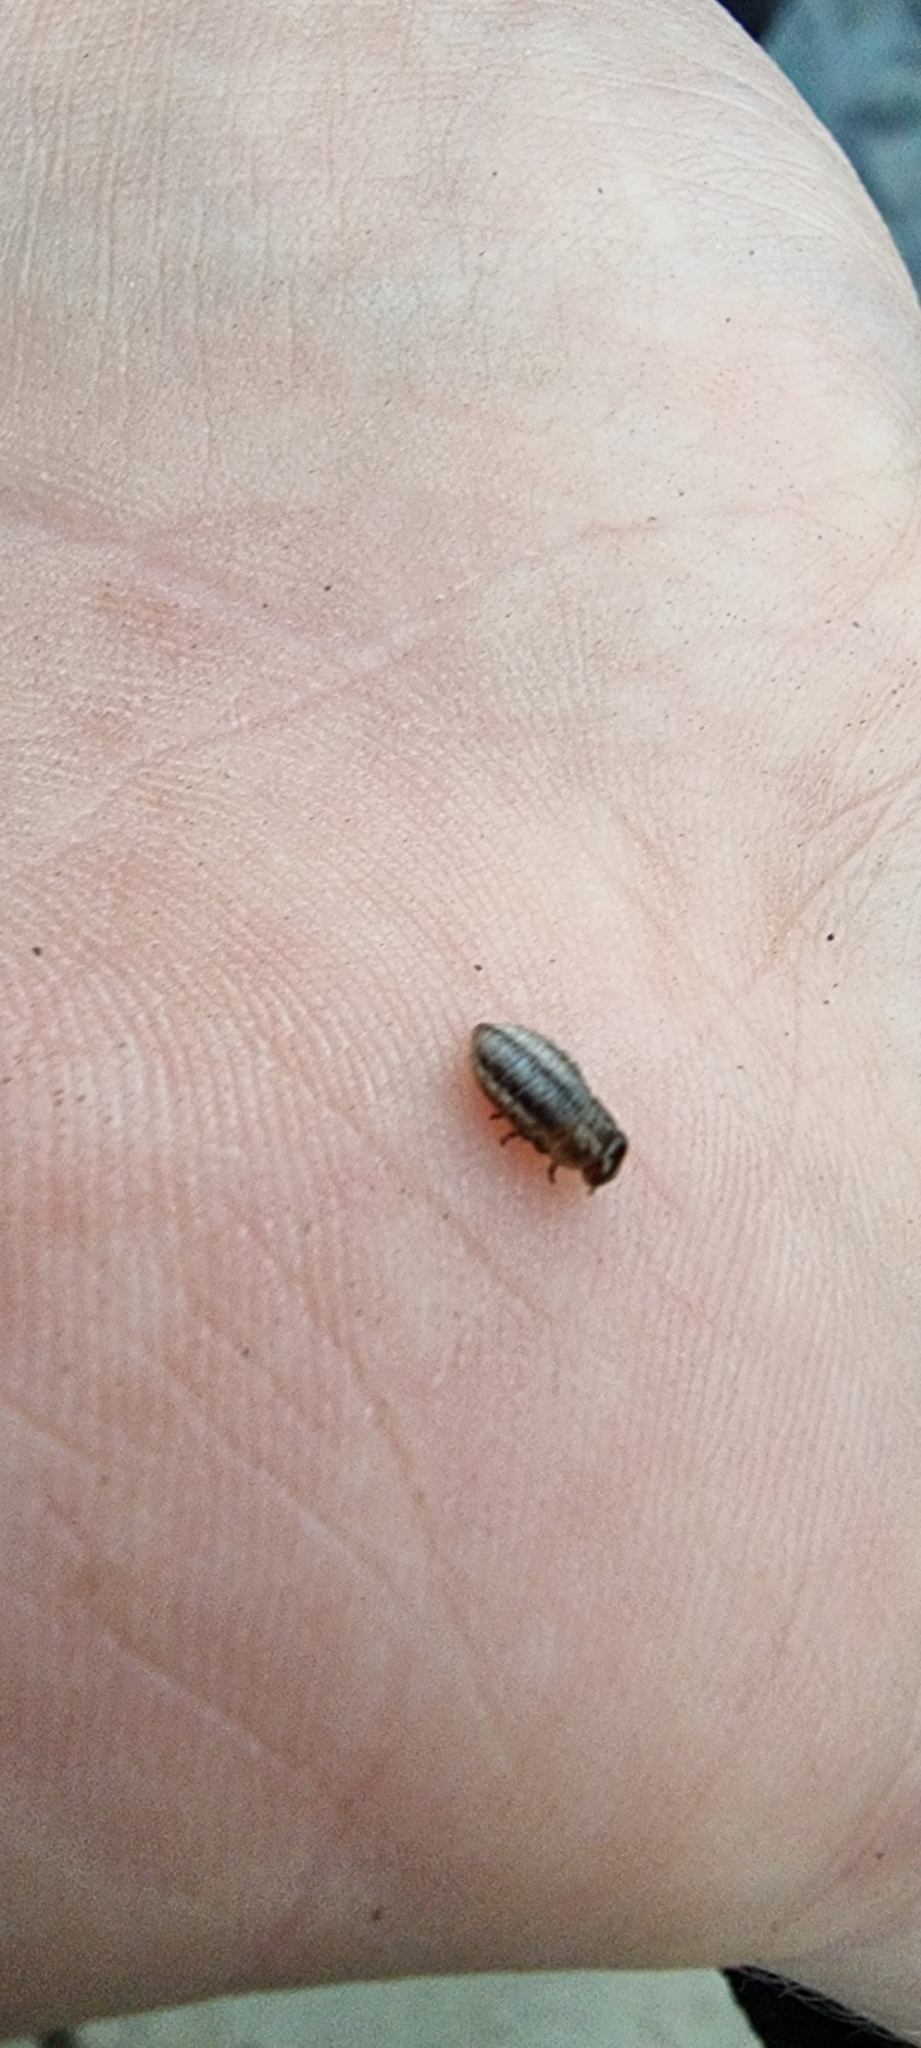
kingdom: Animalia
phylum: Arthropoda
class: Insecta
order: Coleoptera
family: Chrysomelidae
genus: Chrysolina
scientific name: Chrysolina americana
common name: Rosemary beetle
